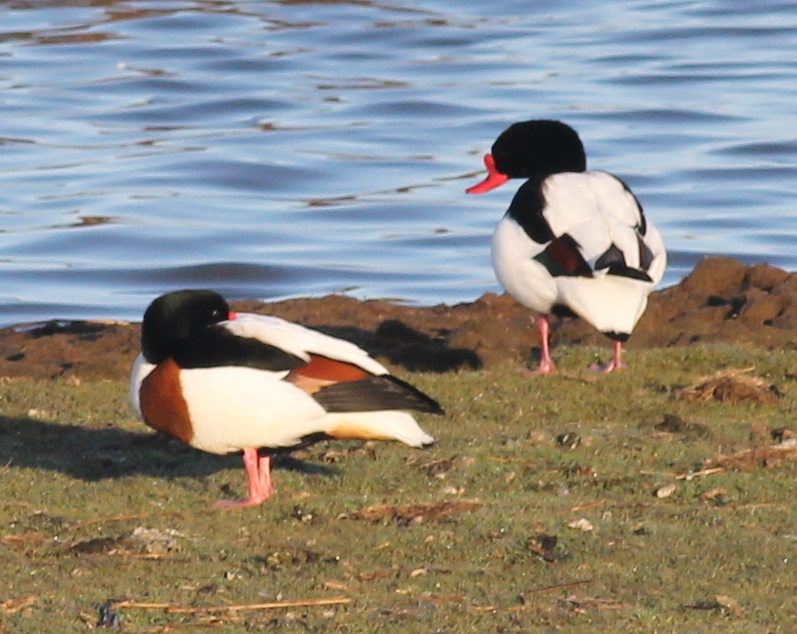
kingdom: Animalia
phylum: Chordata
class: Aves
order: Anseriformes
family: Anatidae
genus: Tadorna
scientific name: Tadorna tadorna
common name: Common shelduck
